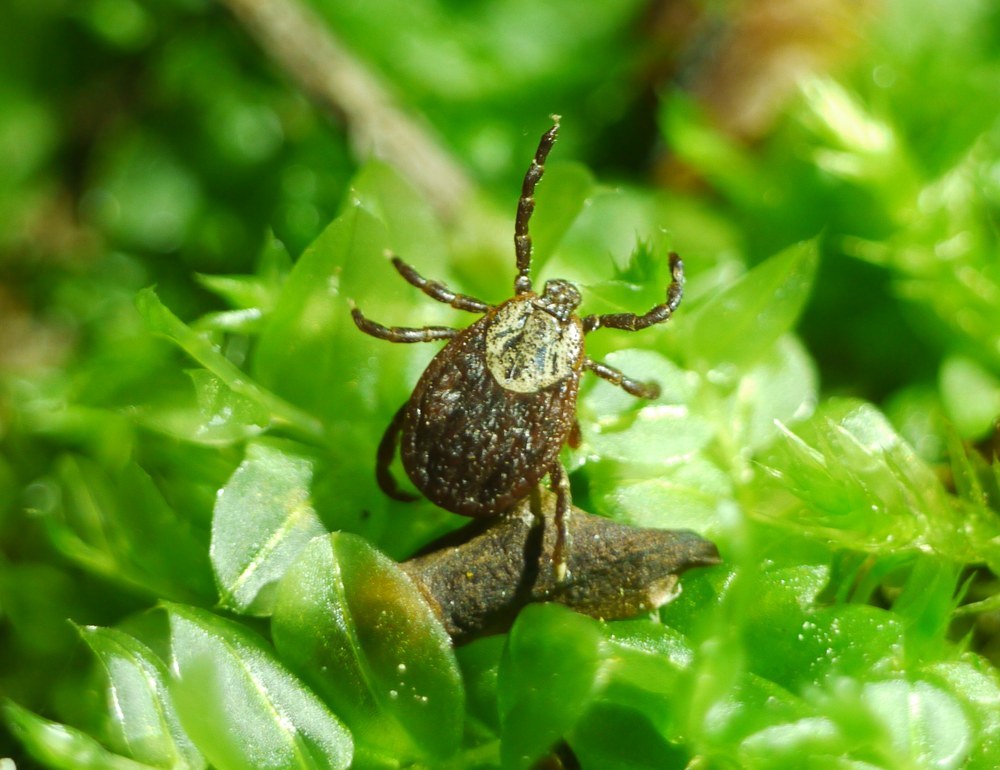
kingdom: Animalia
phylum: Arthropoda
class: Arachnida
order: Ixodida
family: Ixodidae
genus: Dermacentor
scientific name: Dermacentor reticulatus
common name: Ornate cow tick
